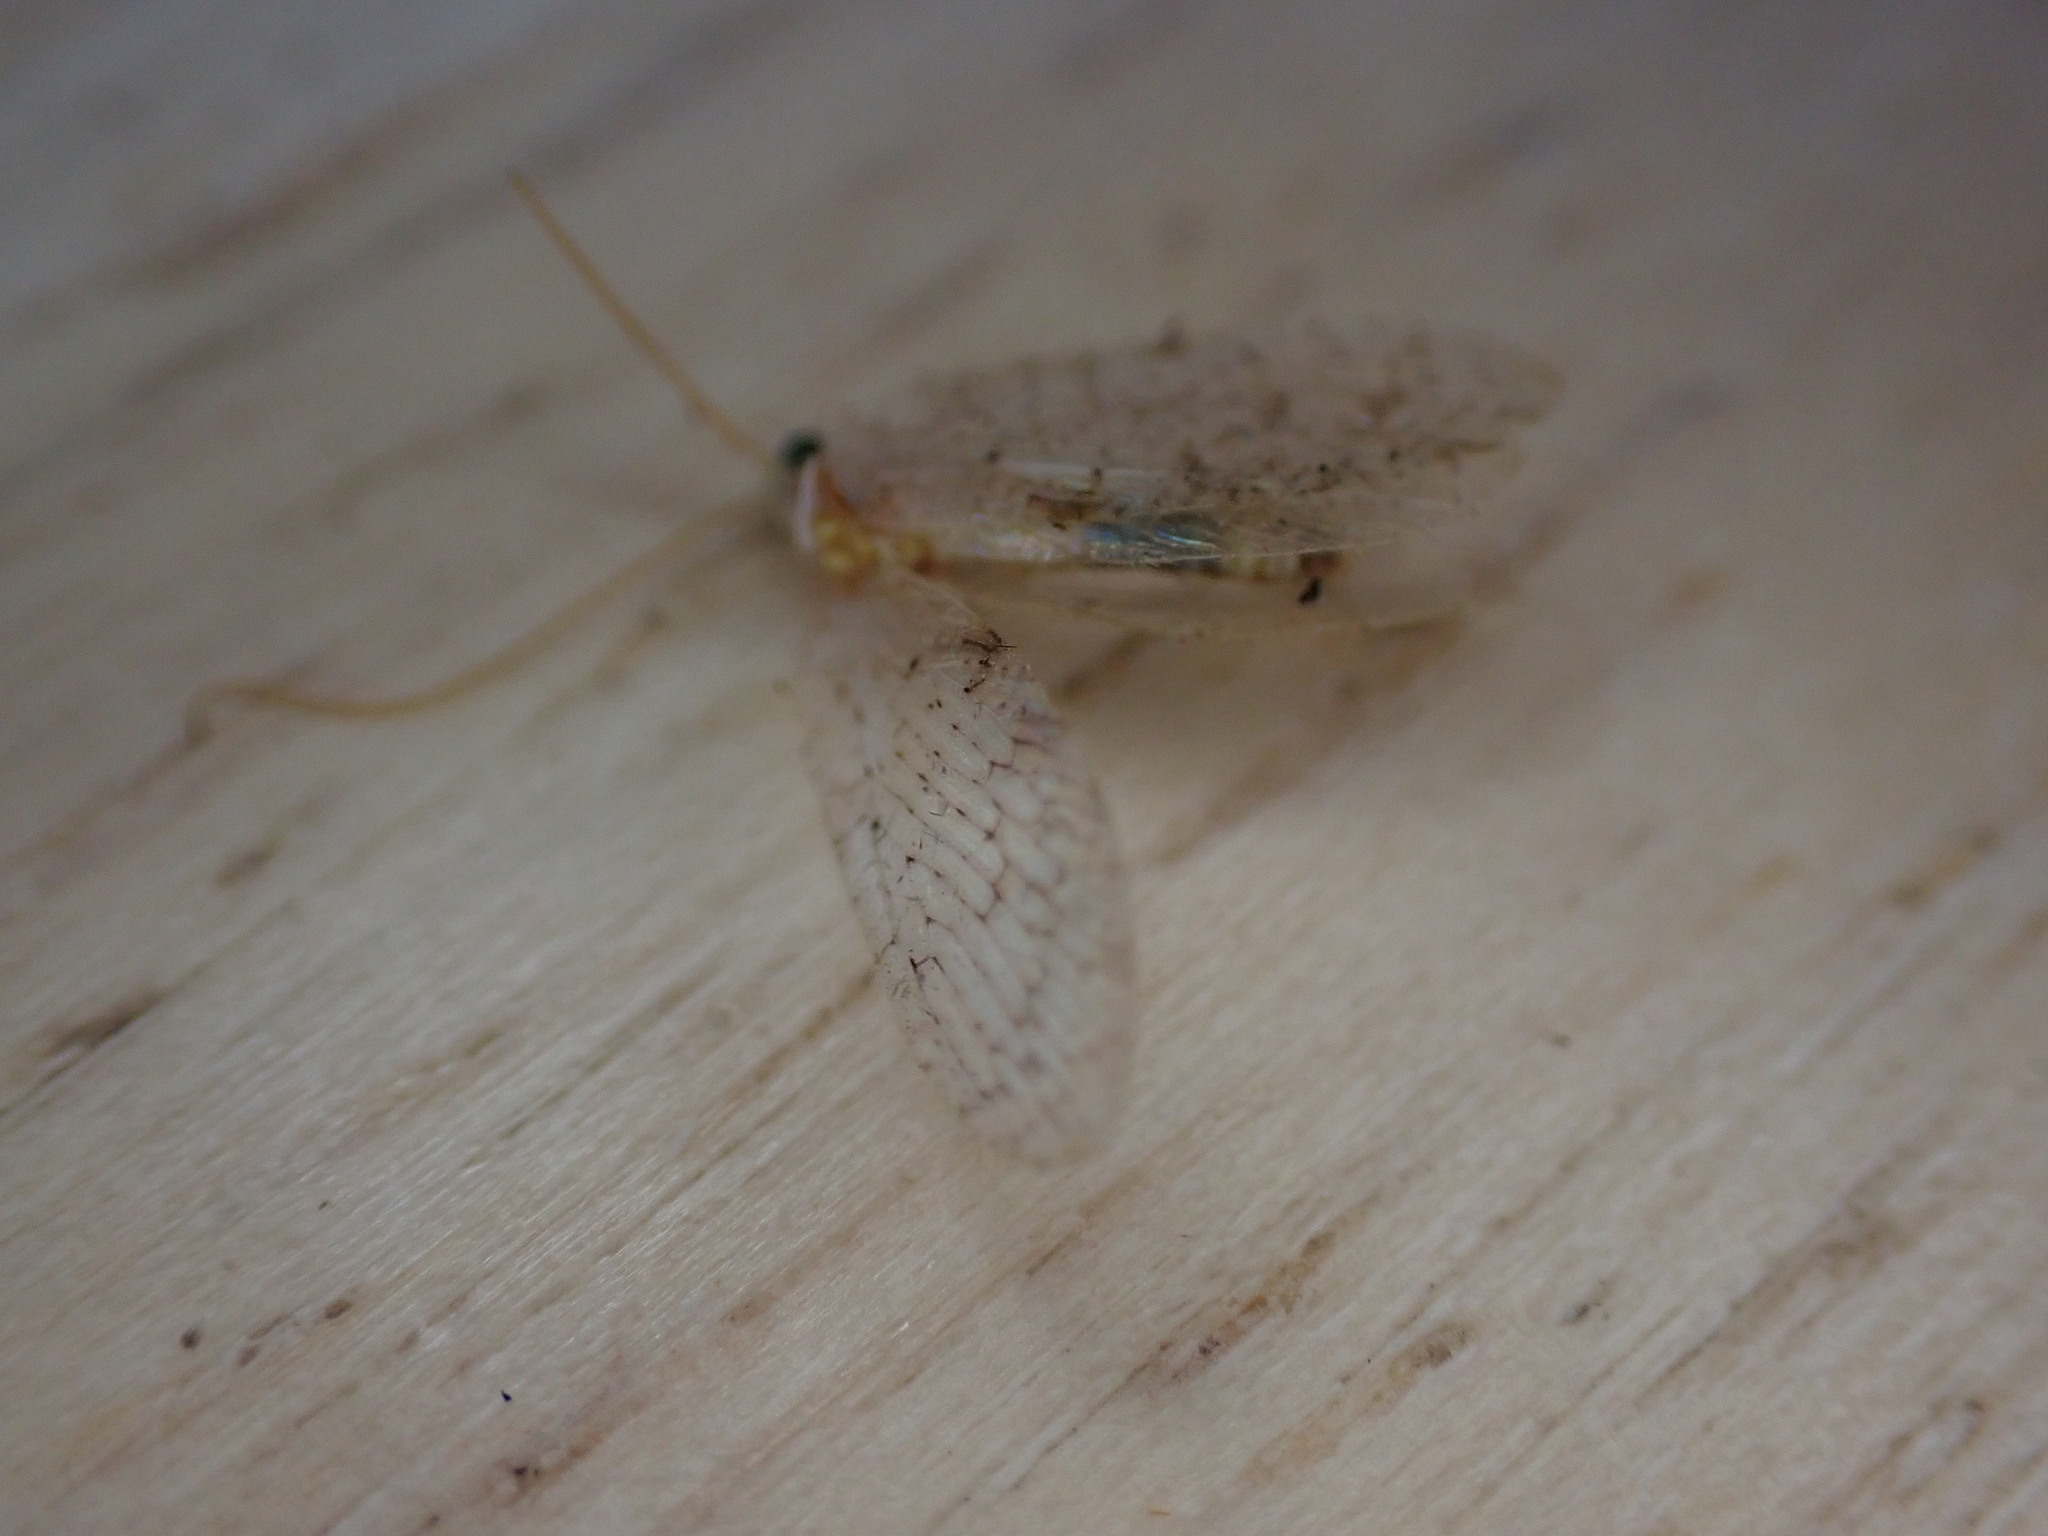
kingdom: Animalia
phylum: Arthropoda
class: Insecta
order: Neuroptera
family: Hemerobiidae
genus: Hemerobius
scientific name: Hemerobius lutescens
